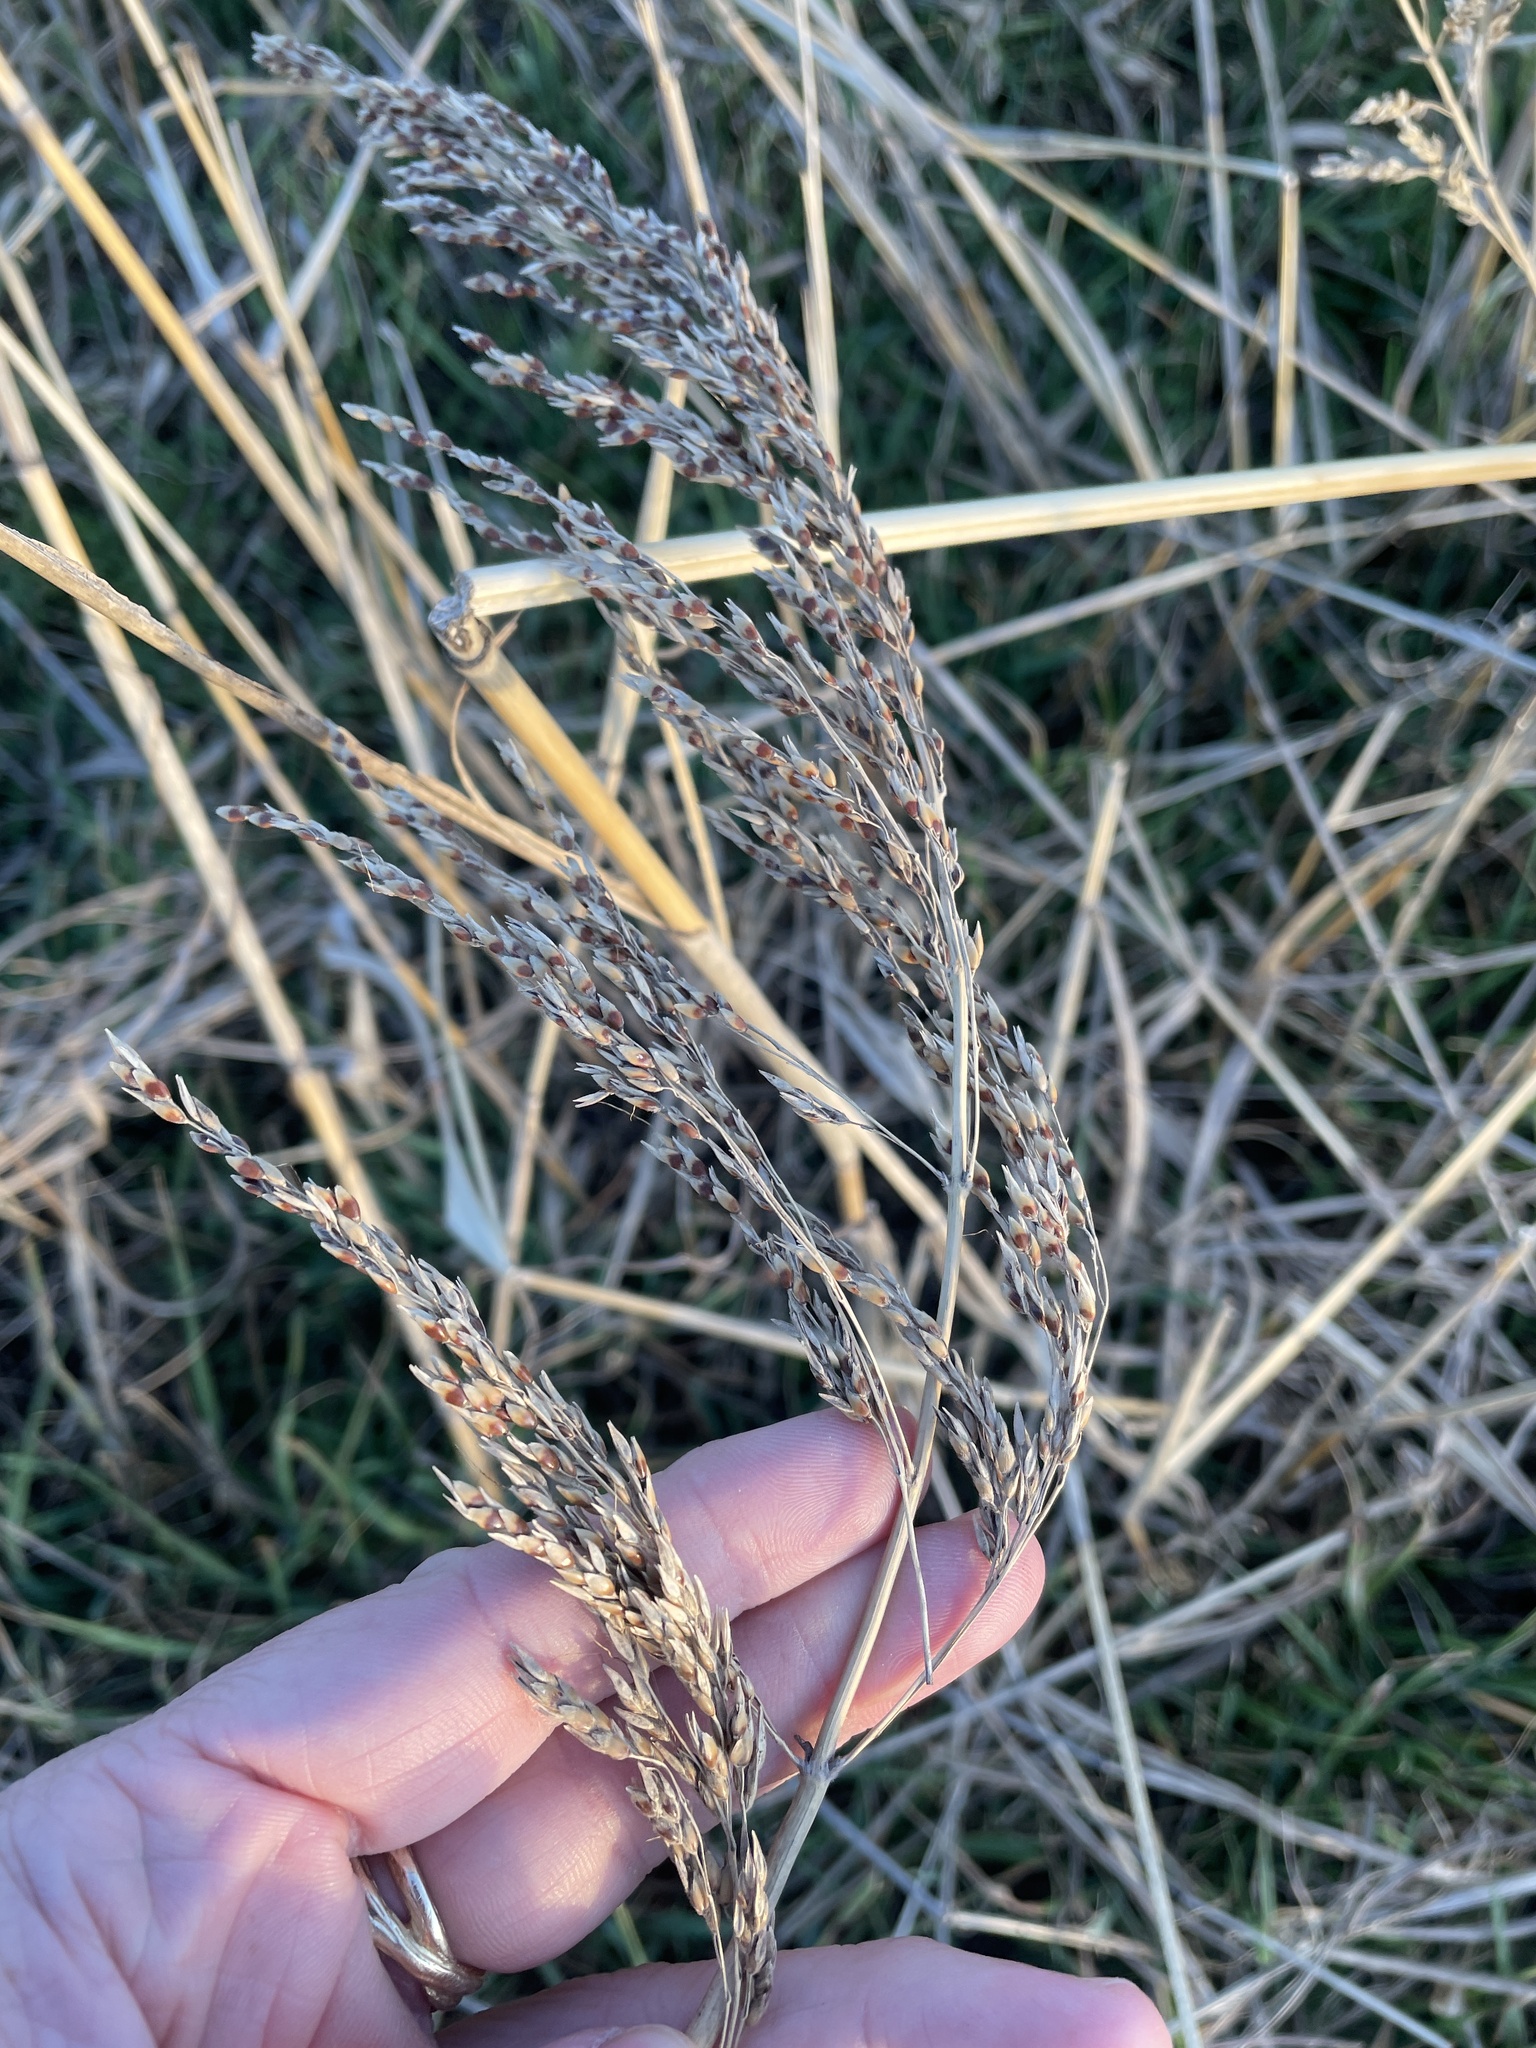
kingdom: Plantae
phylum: Tracheophyta
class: Liliopsida
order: Poales
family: Poaceae
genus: Sorghum
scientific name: Sorghum halepense
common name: Johnson-grass
